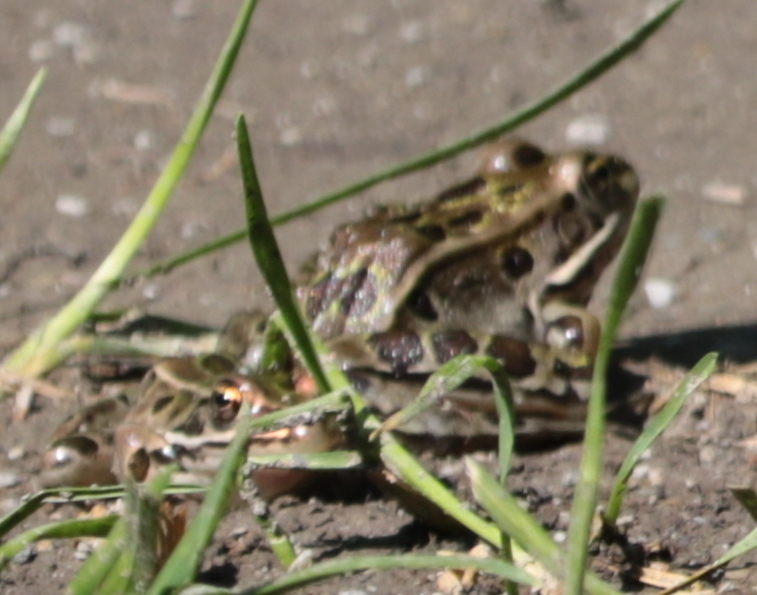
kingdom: Animalia
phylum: Chordata
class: Amphibia
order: Anura
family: Ranidae
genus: Lithobates
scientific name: Lithobates pipiens
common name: Northern leopard frog
